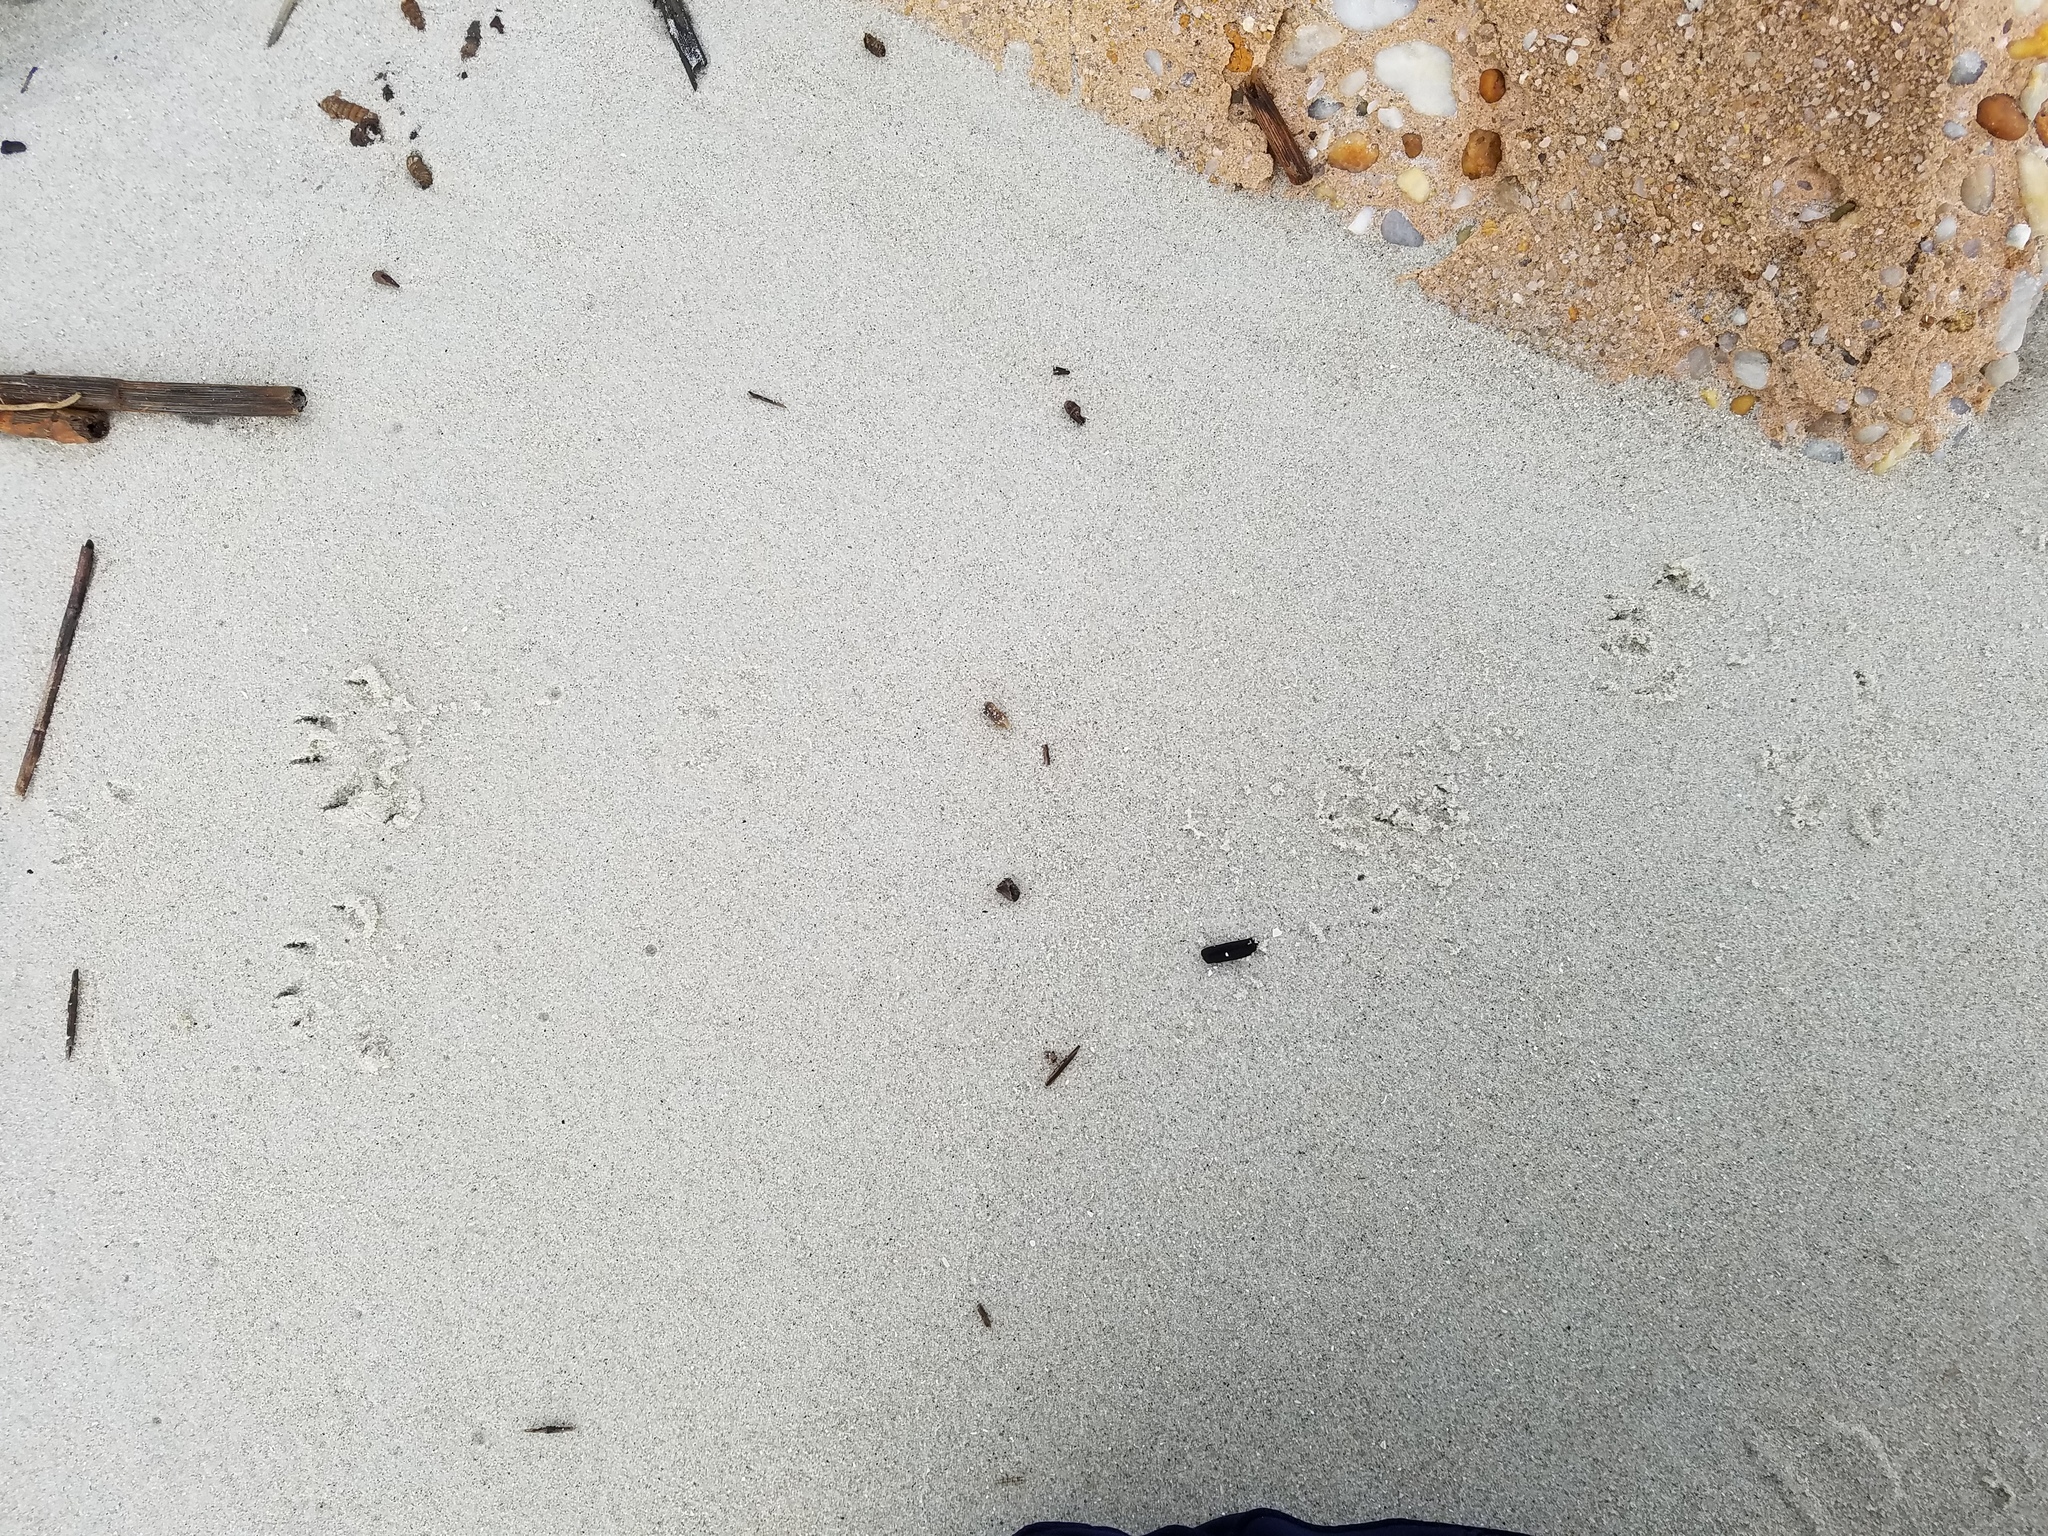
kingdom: Animalia
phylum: Chordata
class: Mammalia
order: Carnivora
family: Mustelidae
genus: Mustela
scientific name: Mustela
